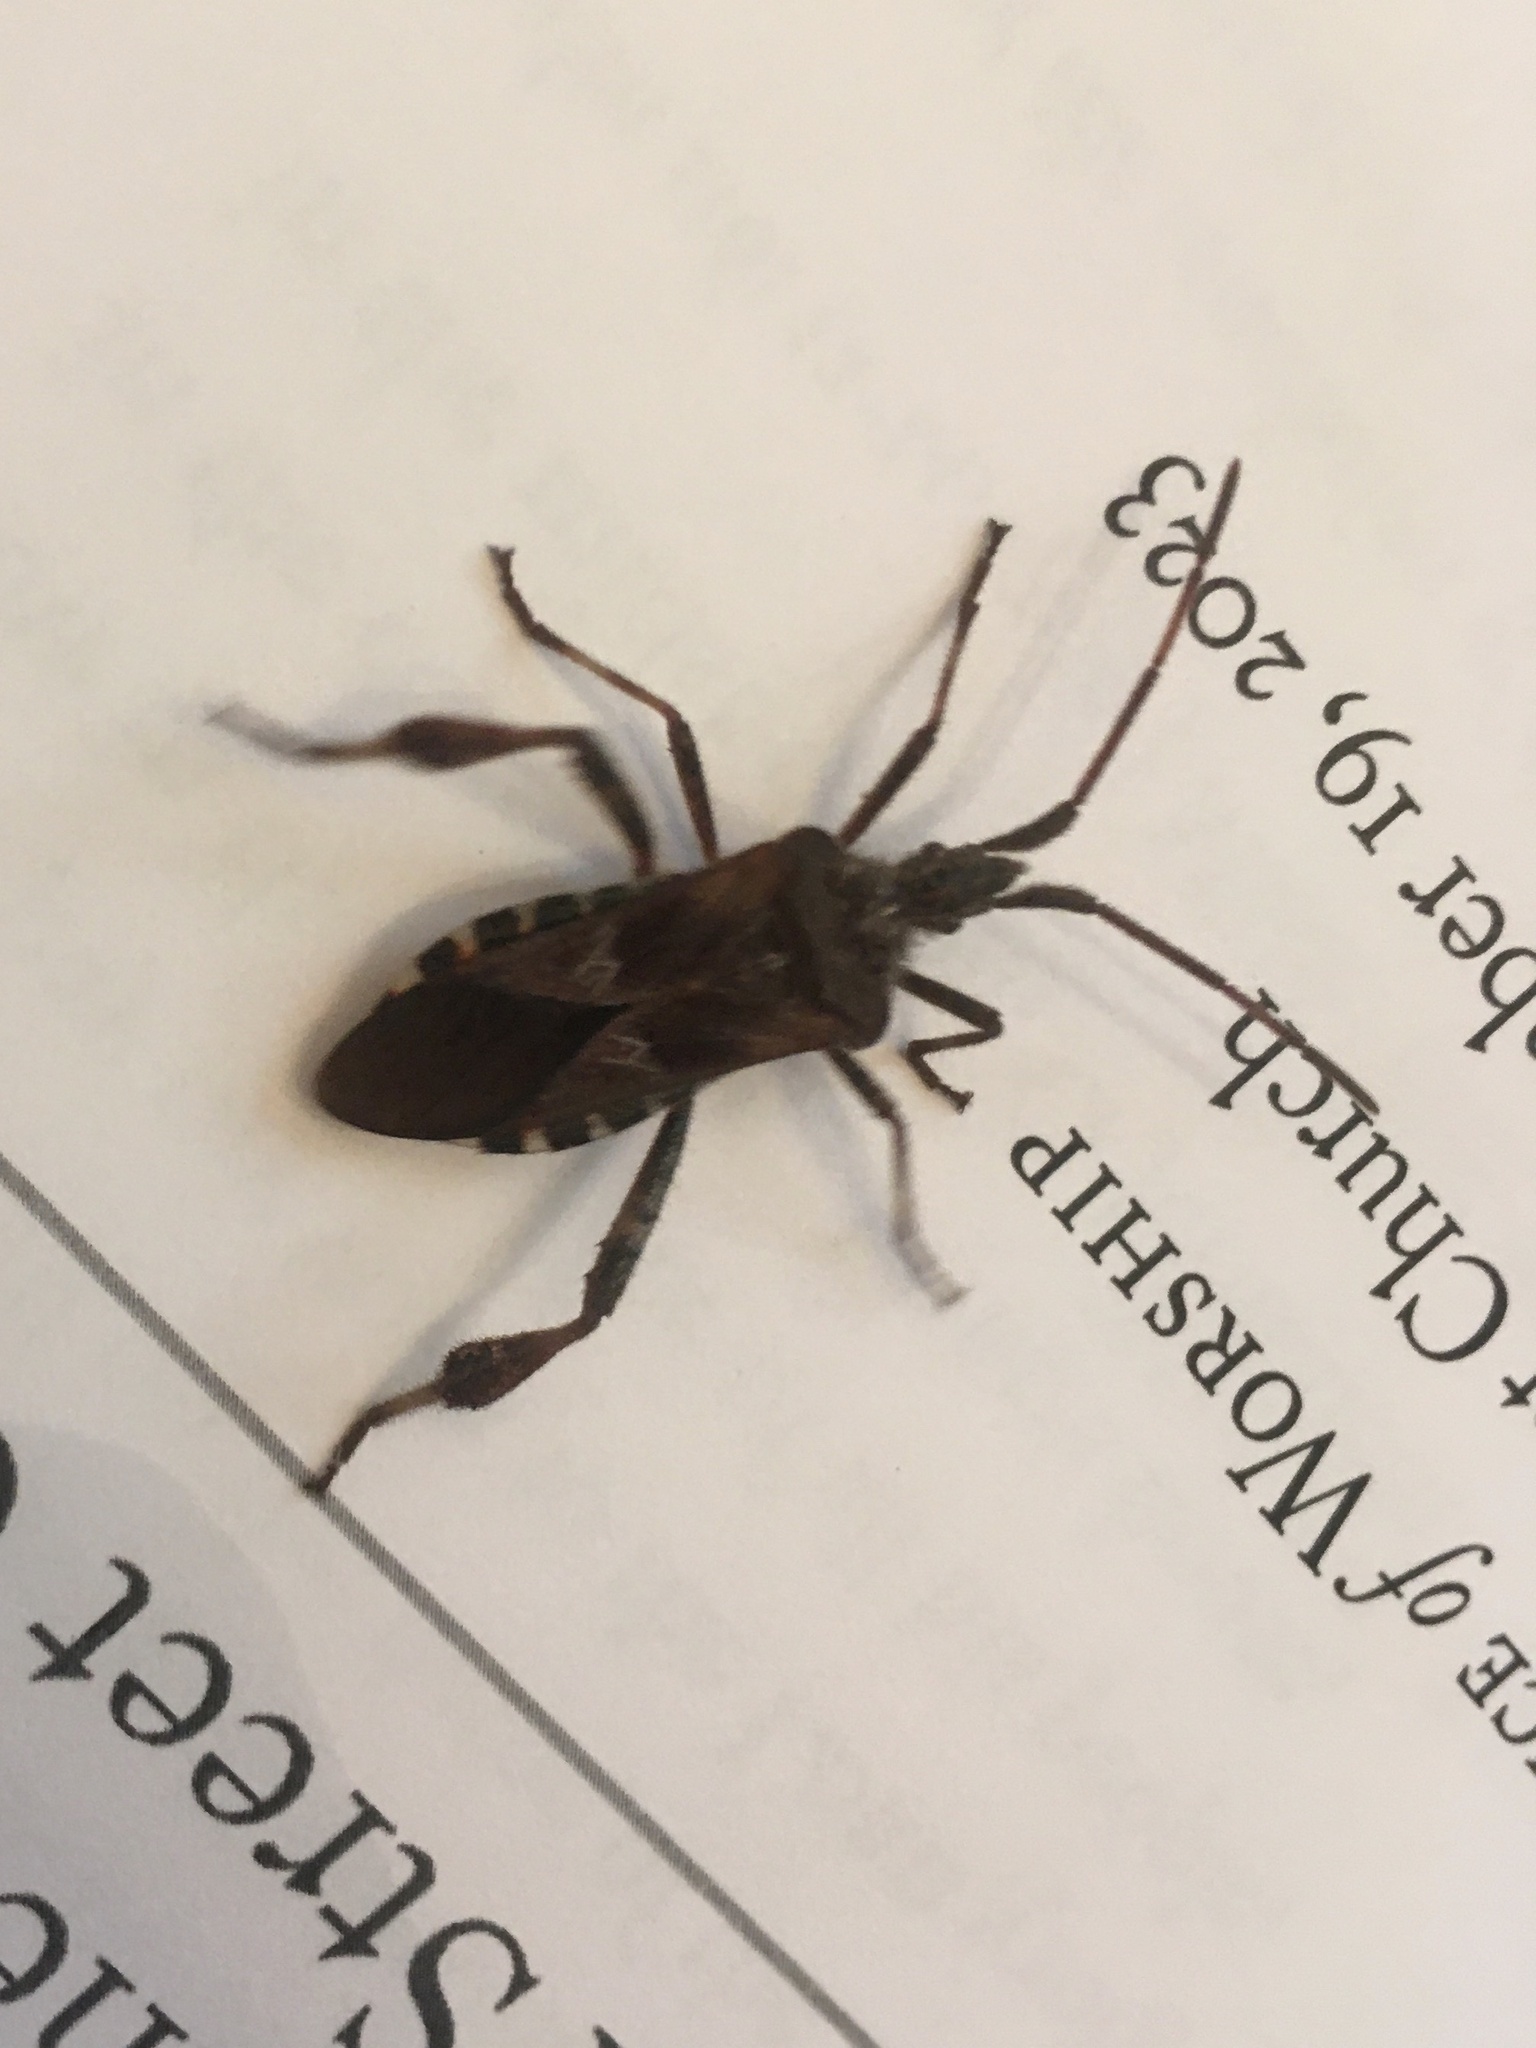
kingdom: Animalia
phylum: Arthropoda
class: Insecta
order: Hemiptera
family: Coreidae
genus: Leptoglossus
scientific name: Leptoglossus occidentalis
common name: Western conifer-seed bug
